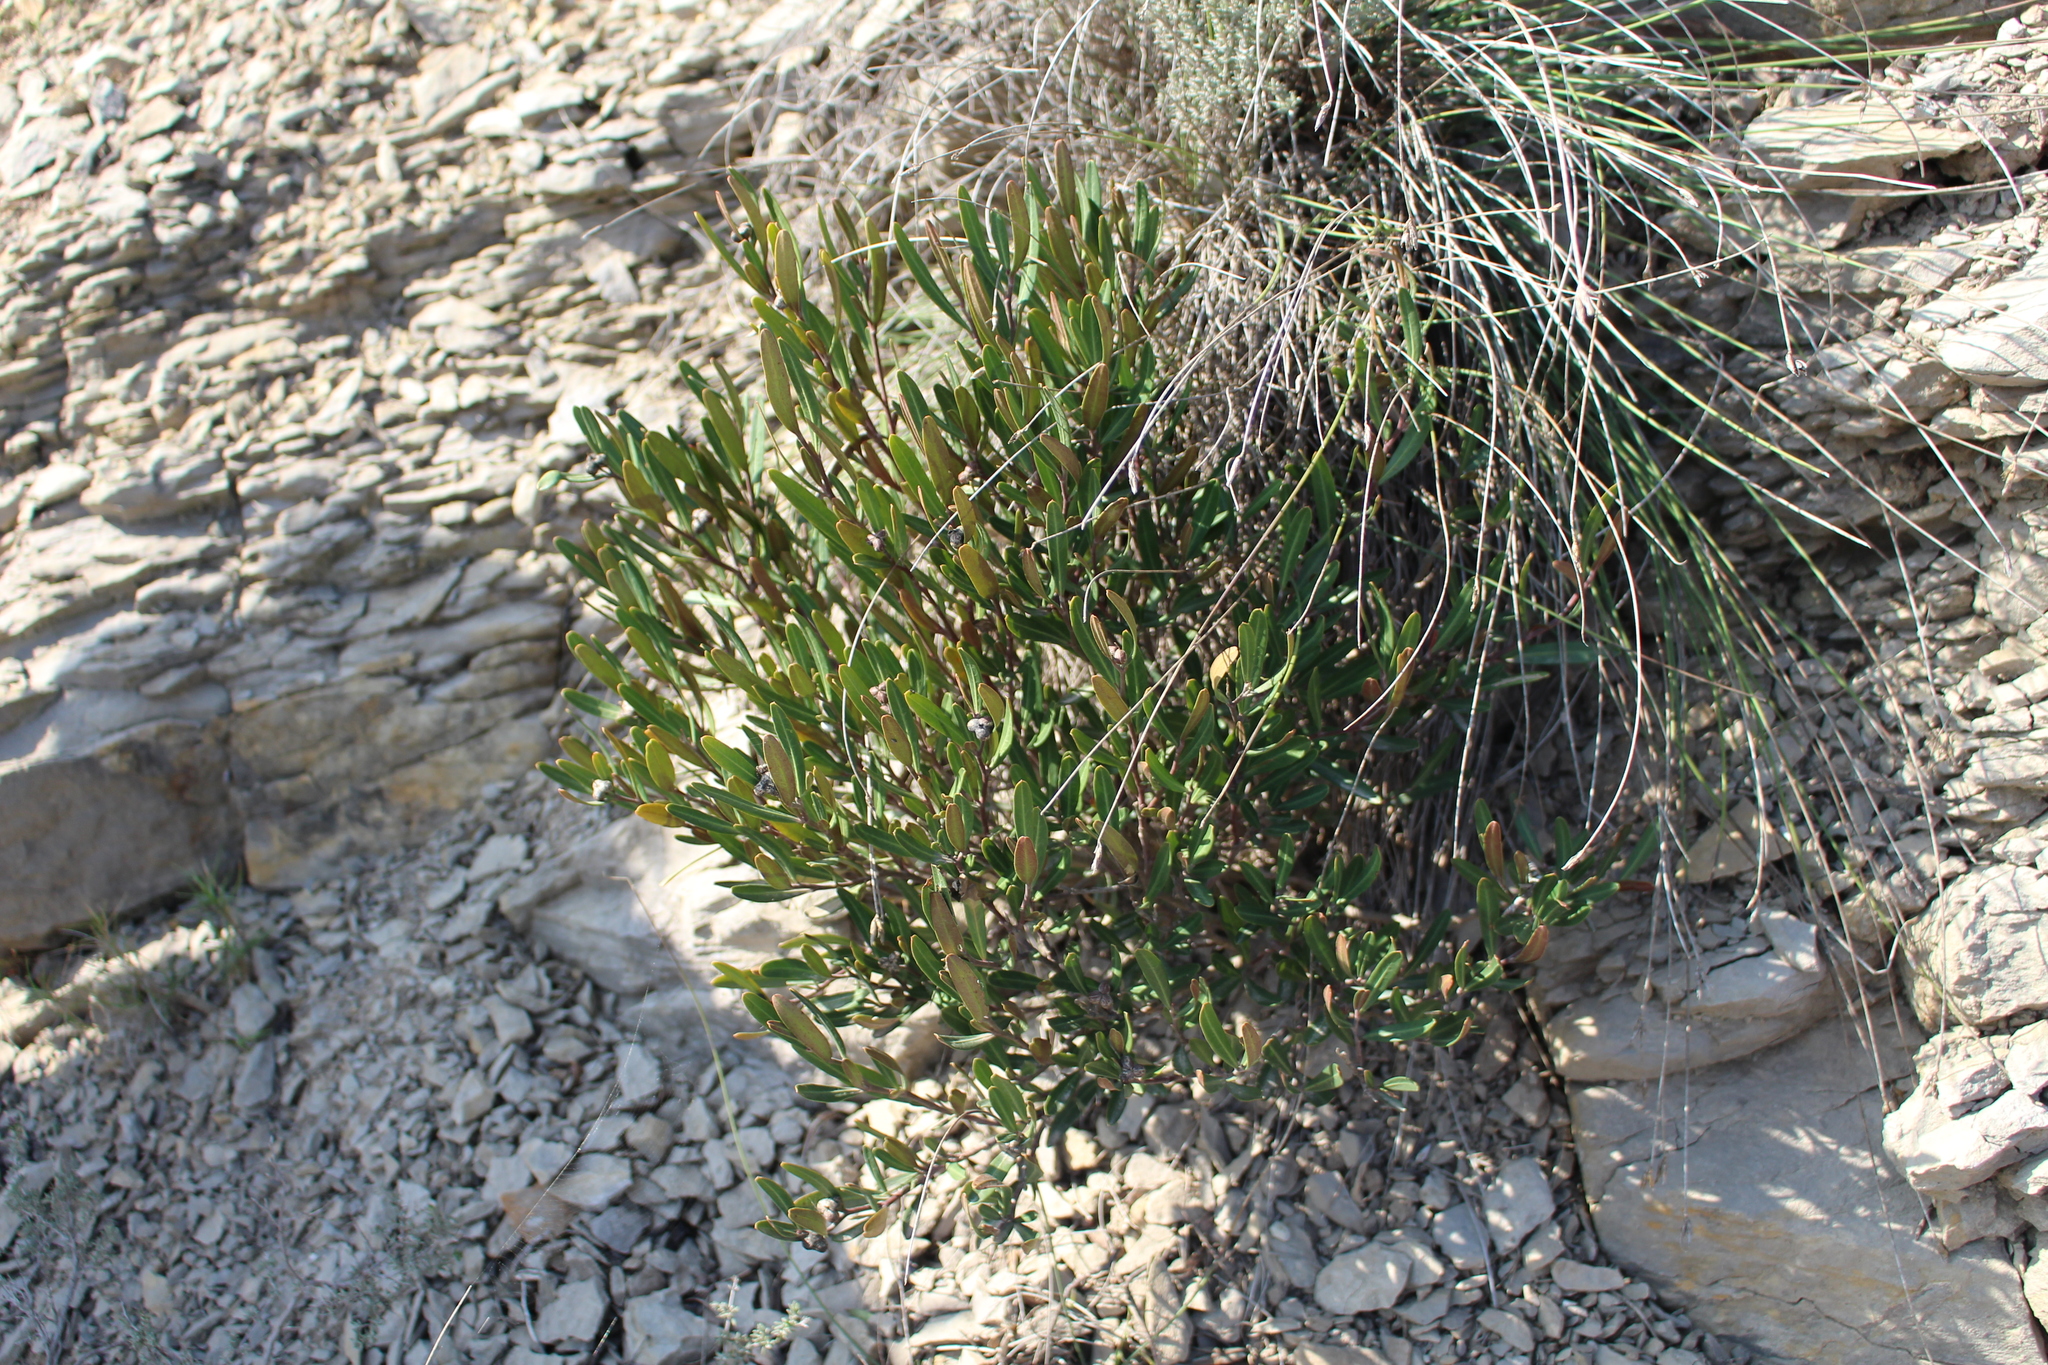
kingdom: Plantae
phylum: Tracheophyta
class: Magnoliopsida
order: Sapindales
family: Rutaceae
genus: Cneorum
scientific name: Cneorum tricoccon
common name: Spurge olive
